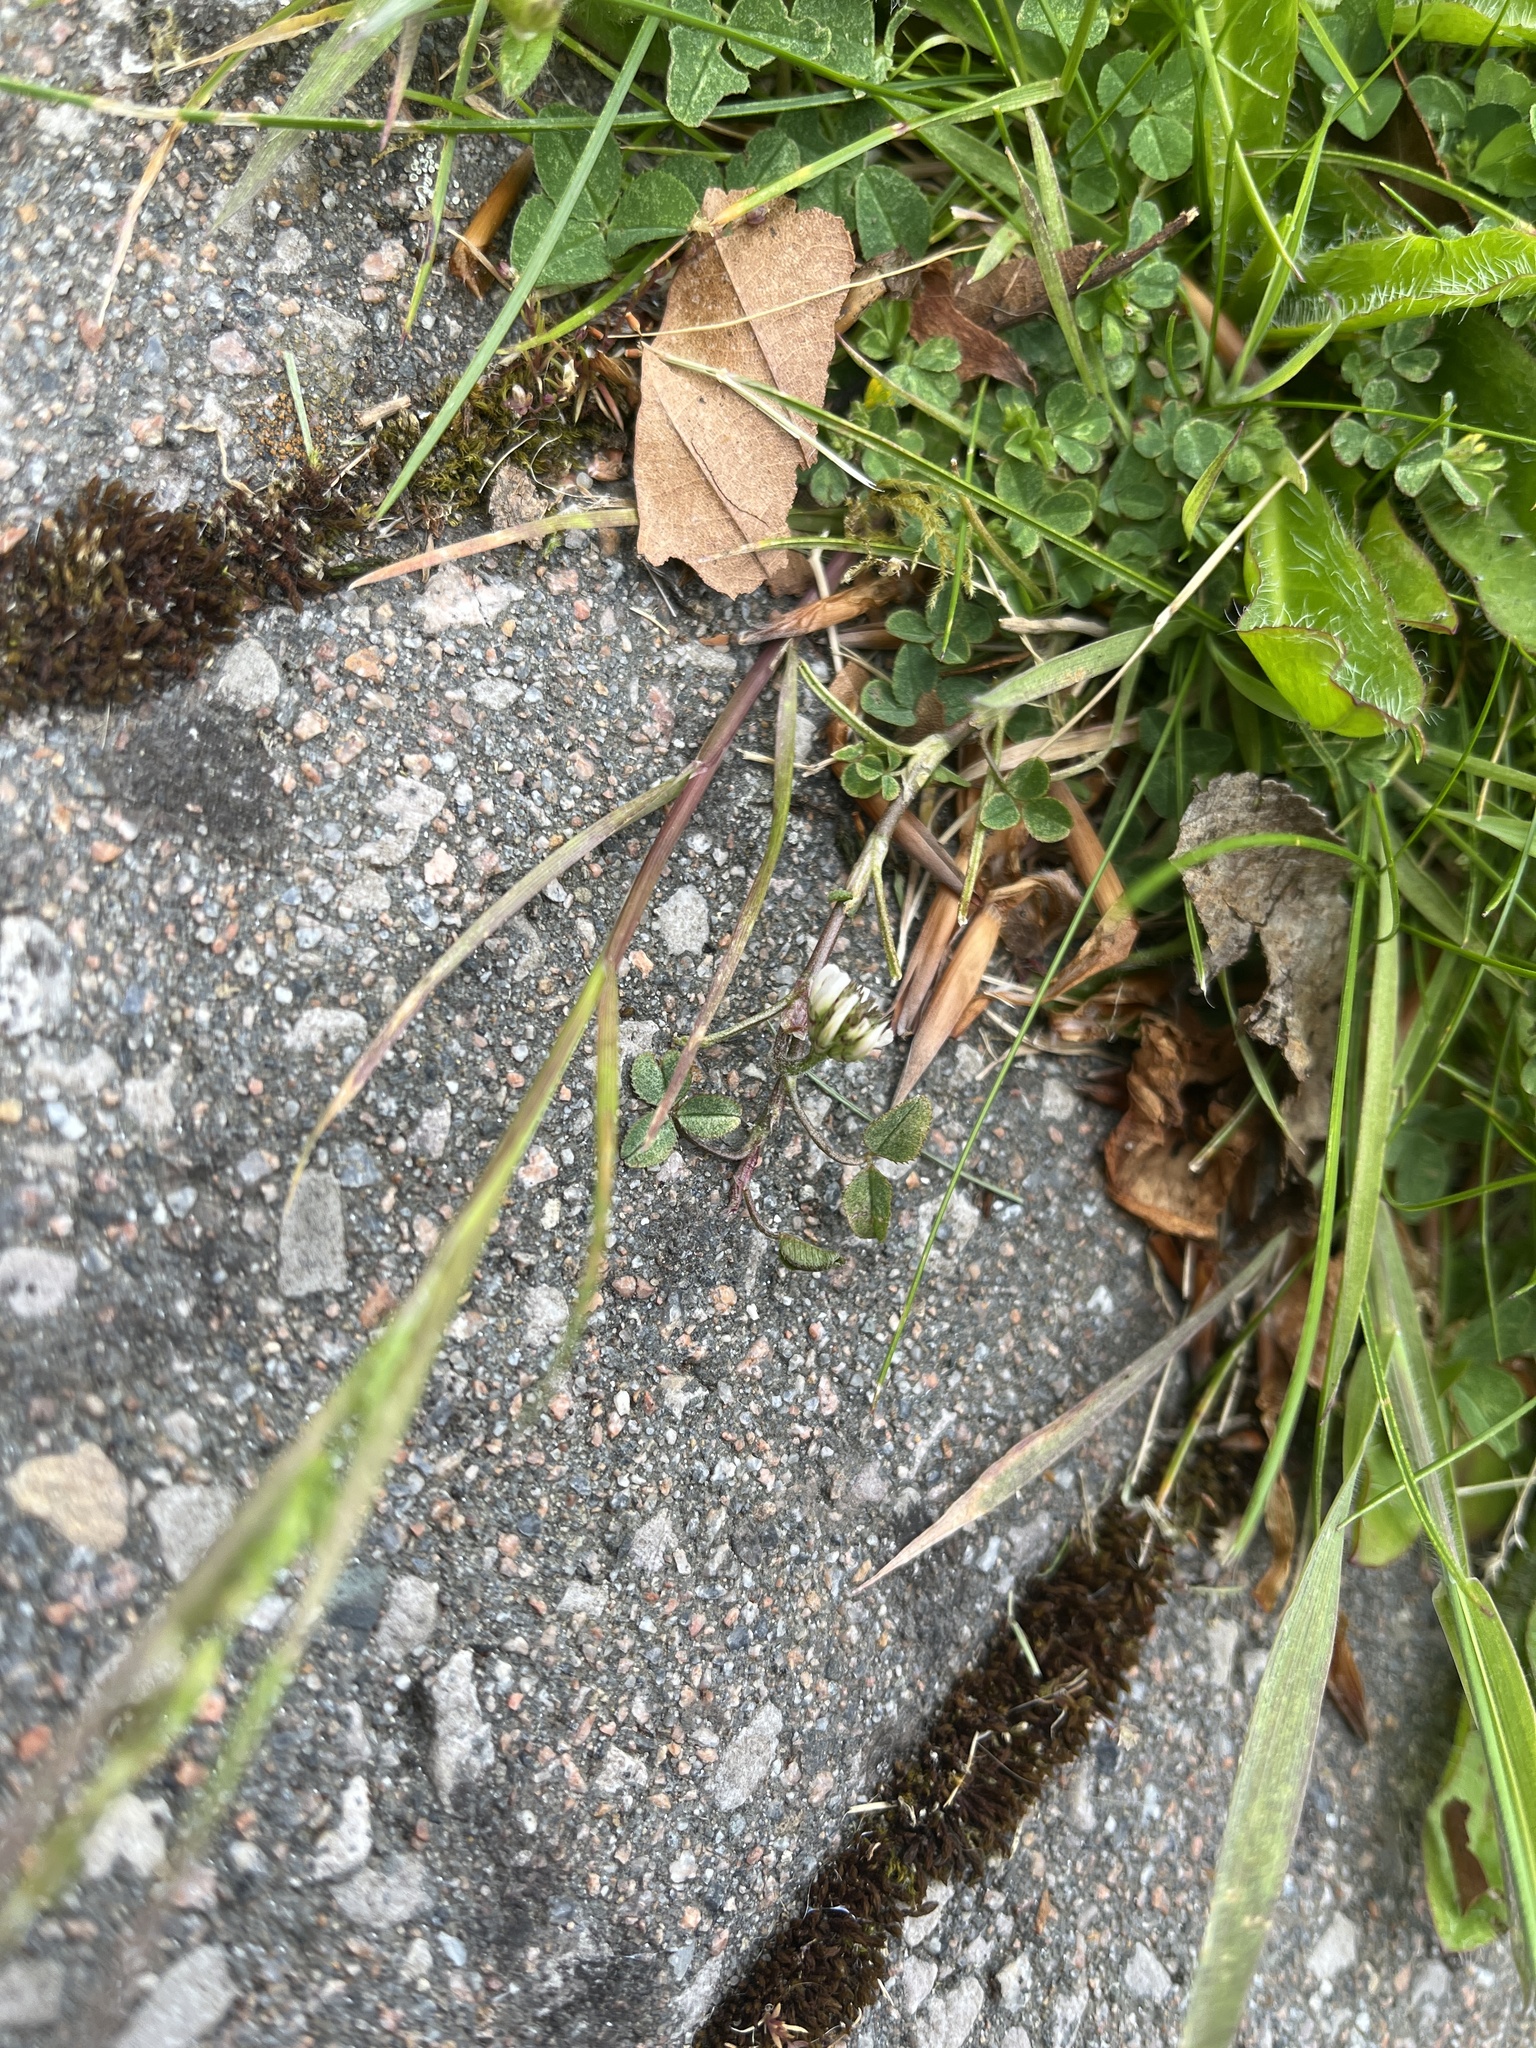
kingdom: Plantae
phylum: Tracheophyta
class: Magnoliopsida
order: Fabales
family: Fabaceae
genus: Trifolium
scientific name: Trifolium repens
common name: White clover
